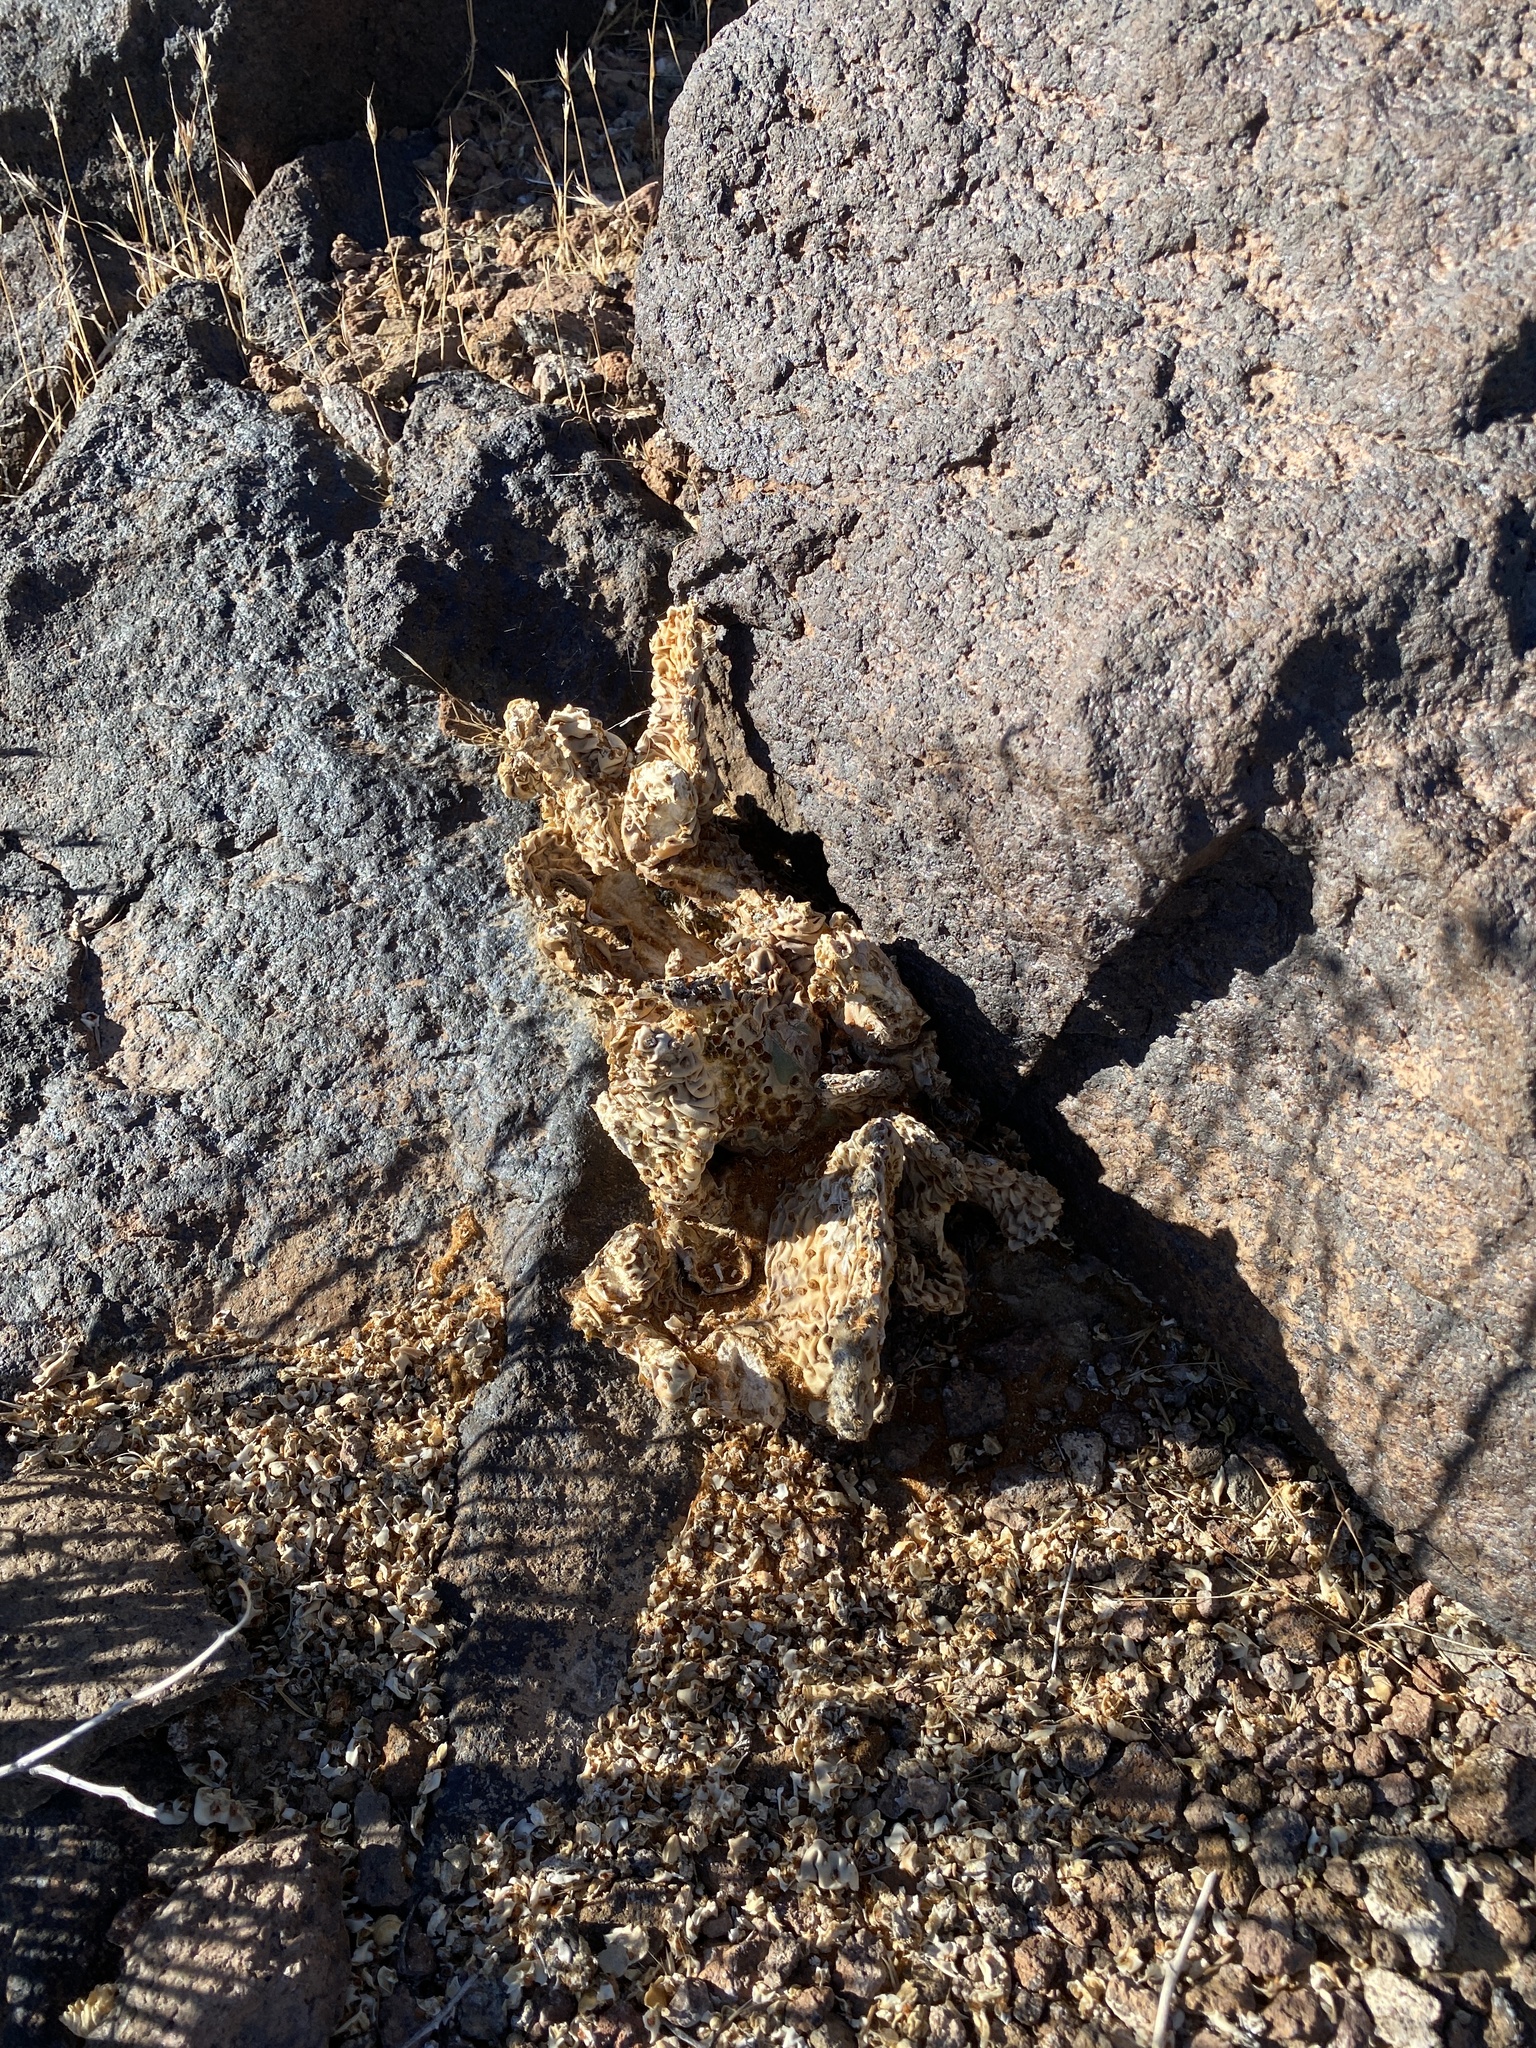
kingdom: Plantae
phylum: Tracheophyta
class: Magnoliopsida
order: Caryophyllales
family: Cactaceae
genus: Opuntia
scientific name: Opuntia basilaris
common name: Beavertail prickly-pear
